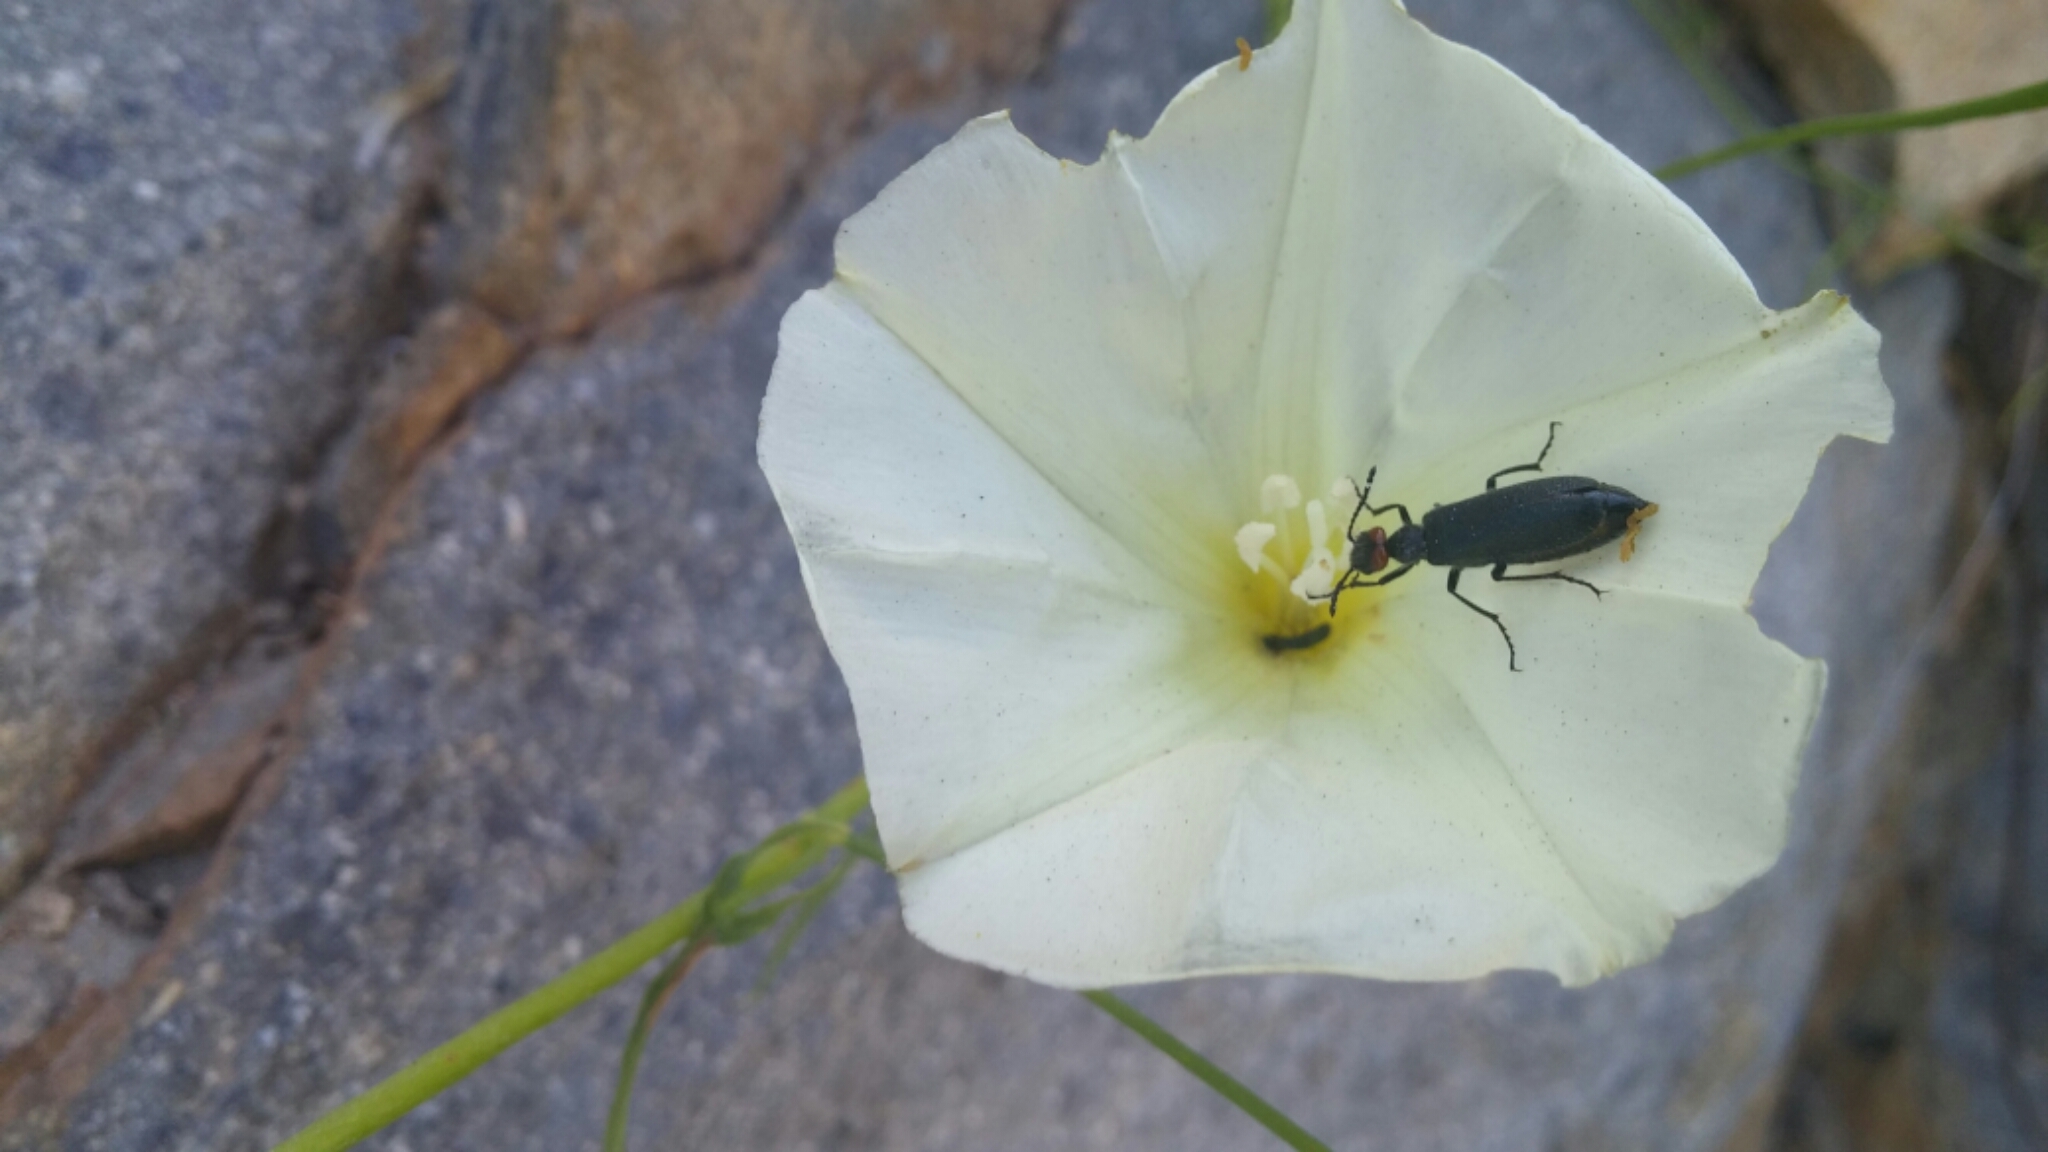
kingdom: Animalia
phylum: Arthropoda
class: Insecta
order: Coleoptera
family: Meloidae
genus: Lytta
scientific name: Lytta auriculata
